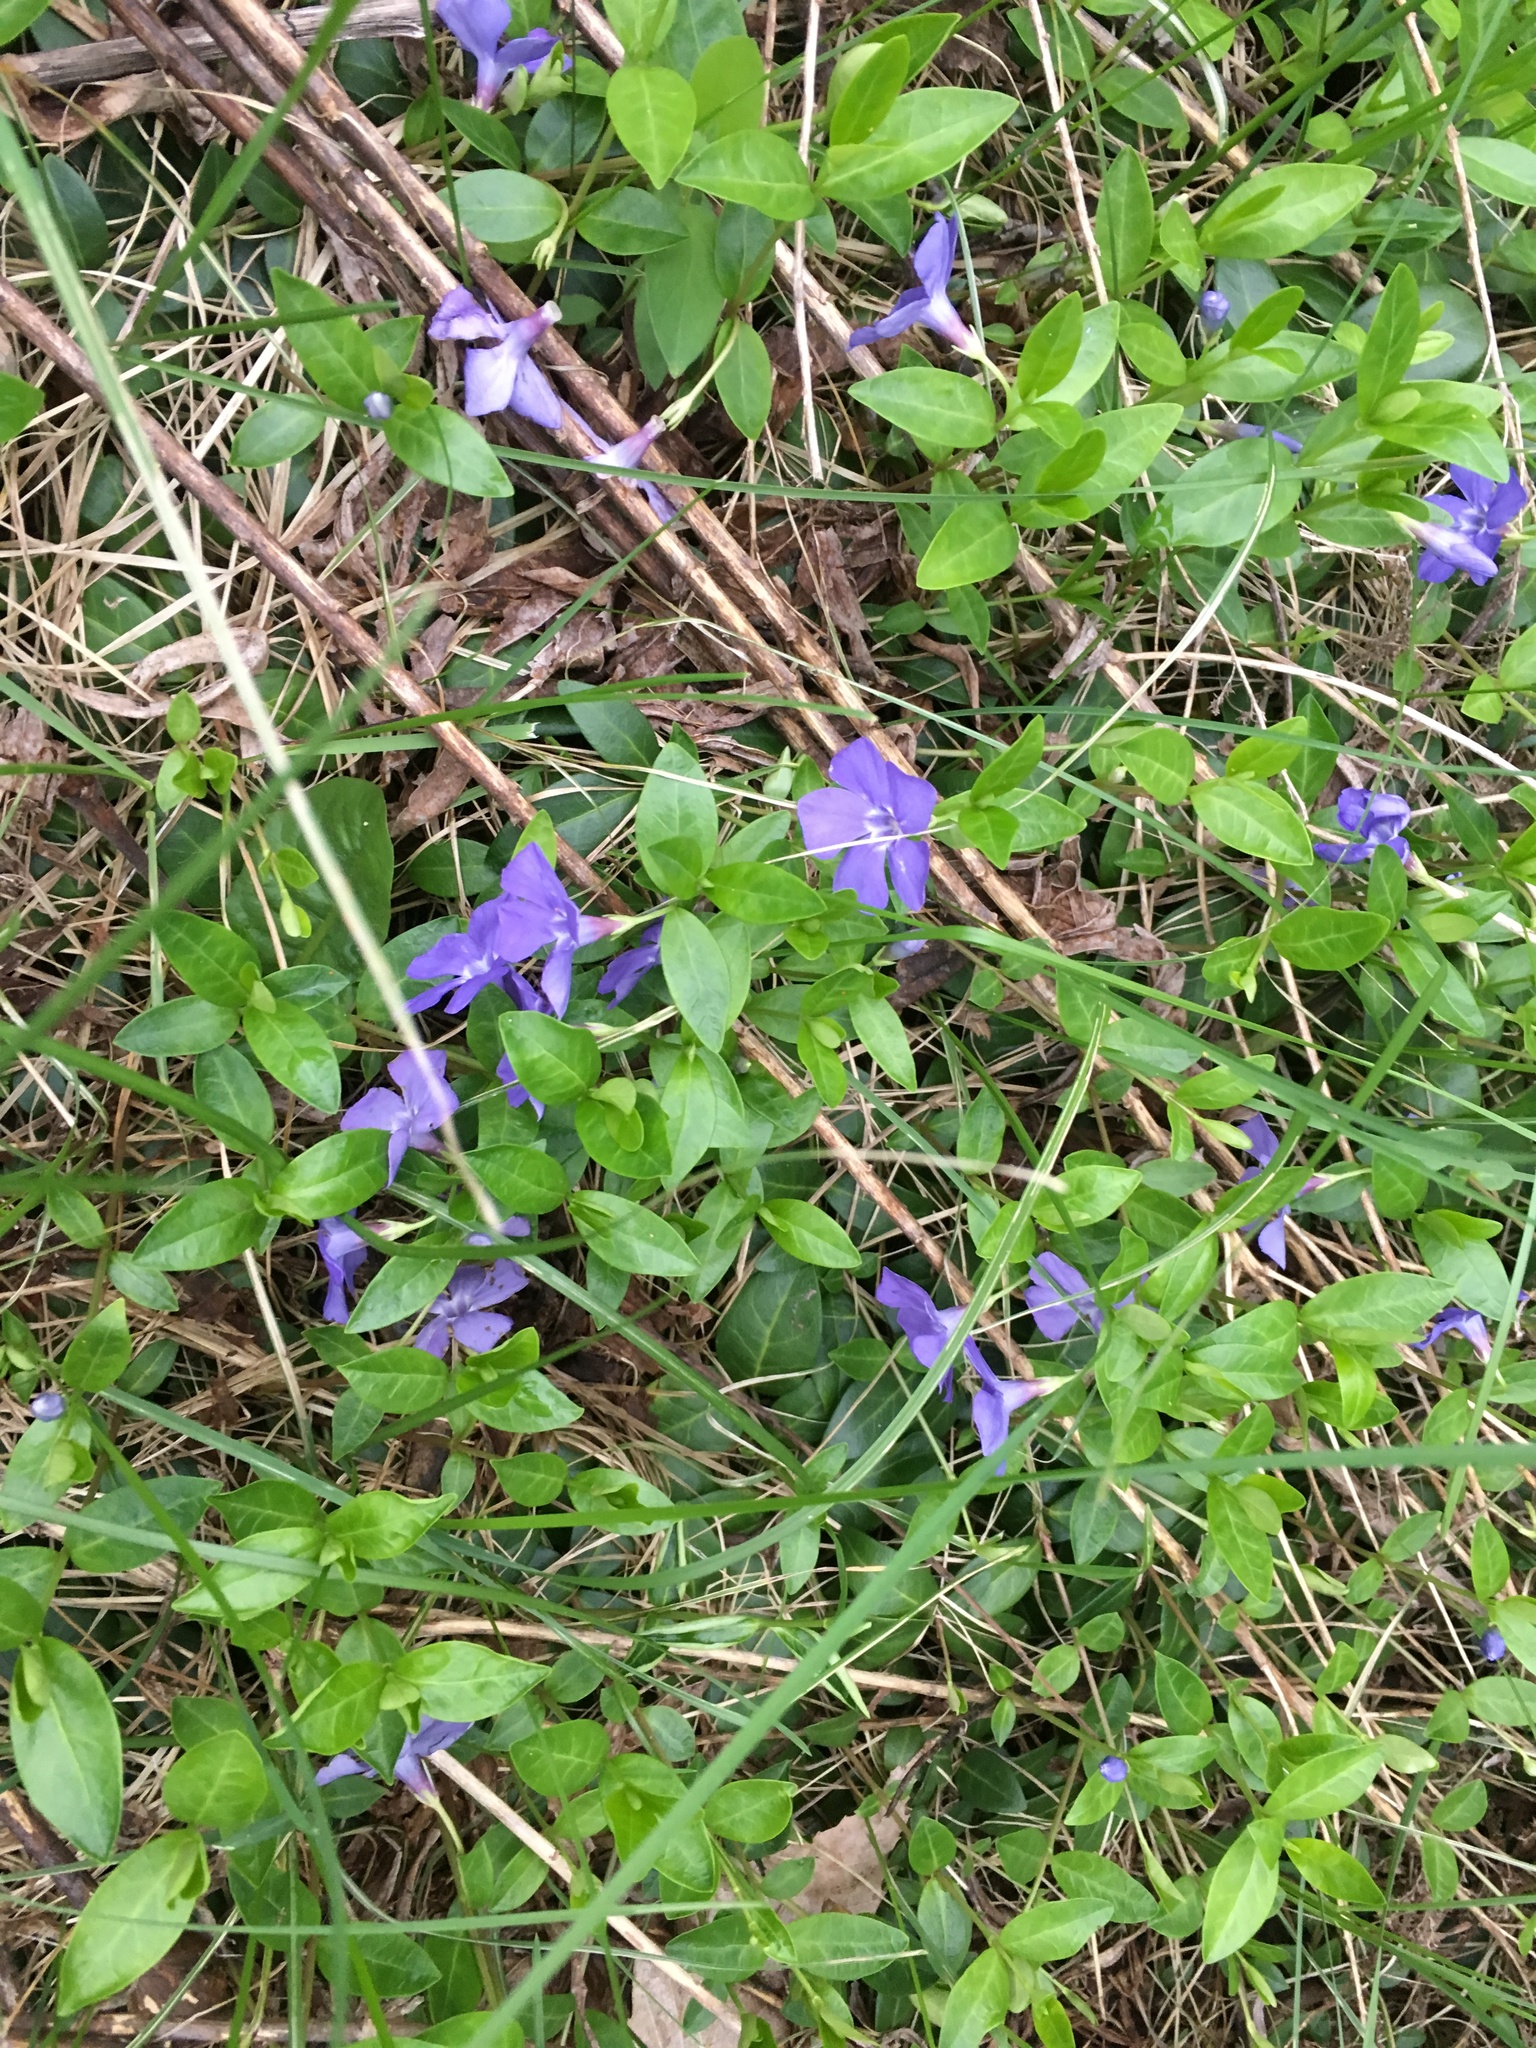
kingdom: Plantae
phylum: Tracheophyta
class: Magnoliopsida
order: Gentianales
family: Apocynaceae
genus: Vinca
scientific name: Vinca minor
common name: Lesser periwinkle
